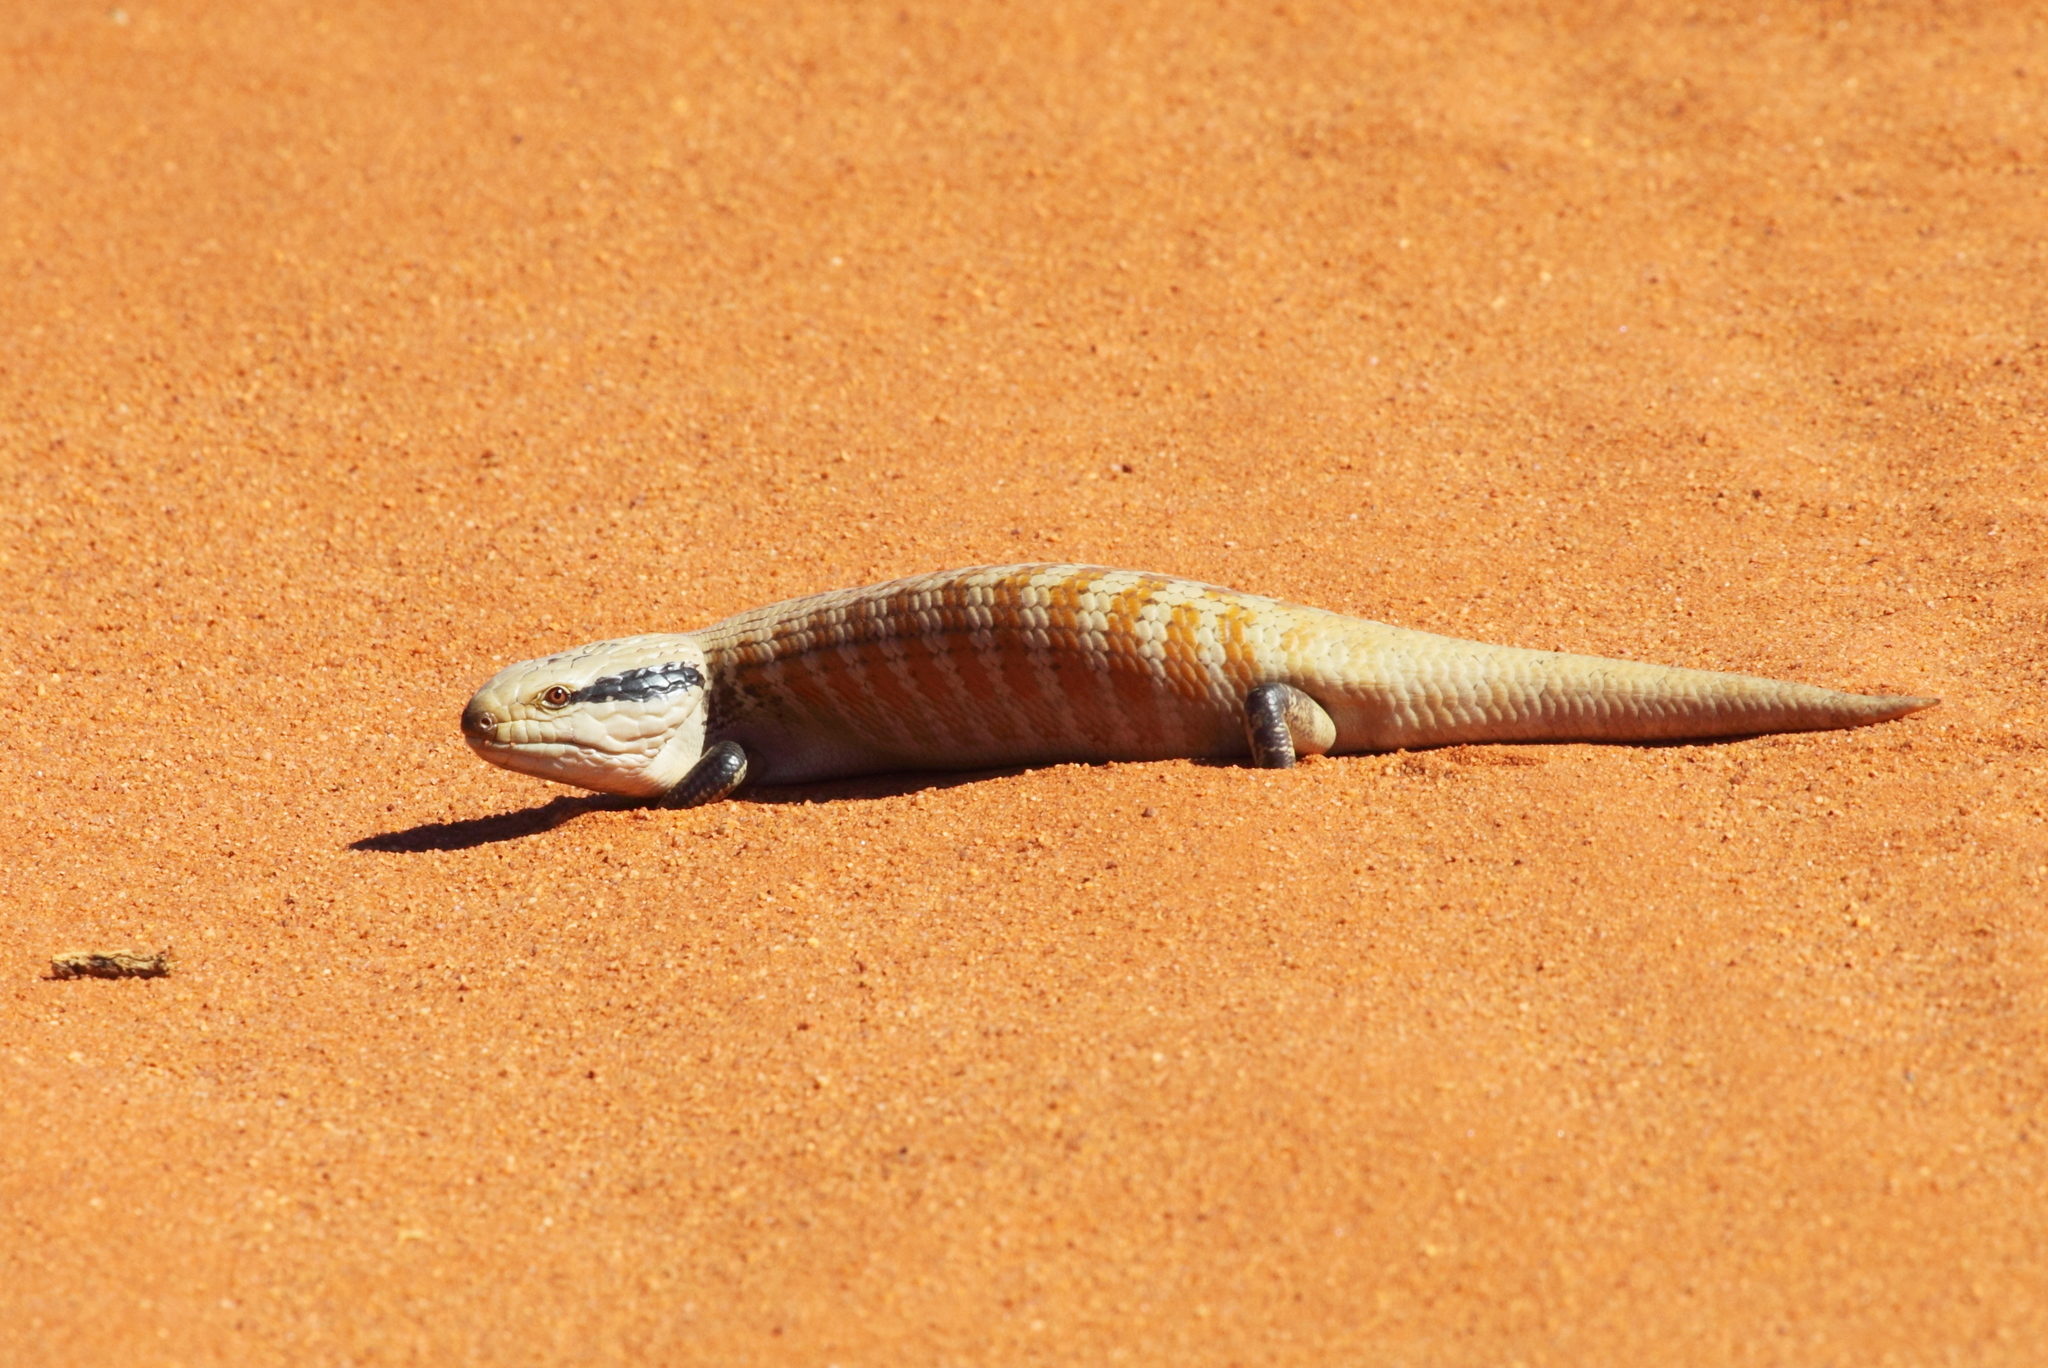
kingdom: Animalia
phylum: Chordata
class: Squamata
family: Scincidae
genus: Tiliqua
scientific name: Tiliqua multifasciata
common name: Centralian blue-tongued lizard
